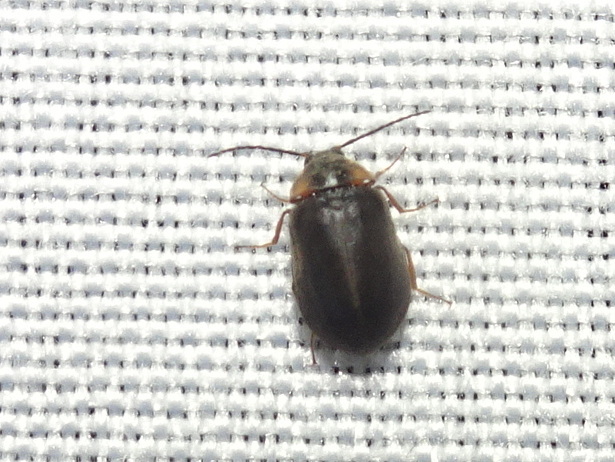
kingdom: Animalia
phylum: Arthropoda
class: Insecta
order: Coleoptera
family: Psephenidae
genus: Ectopria
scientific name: Ectopria nervosa
